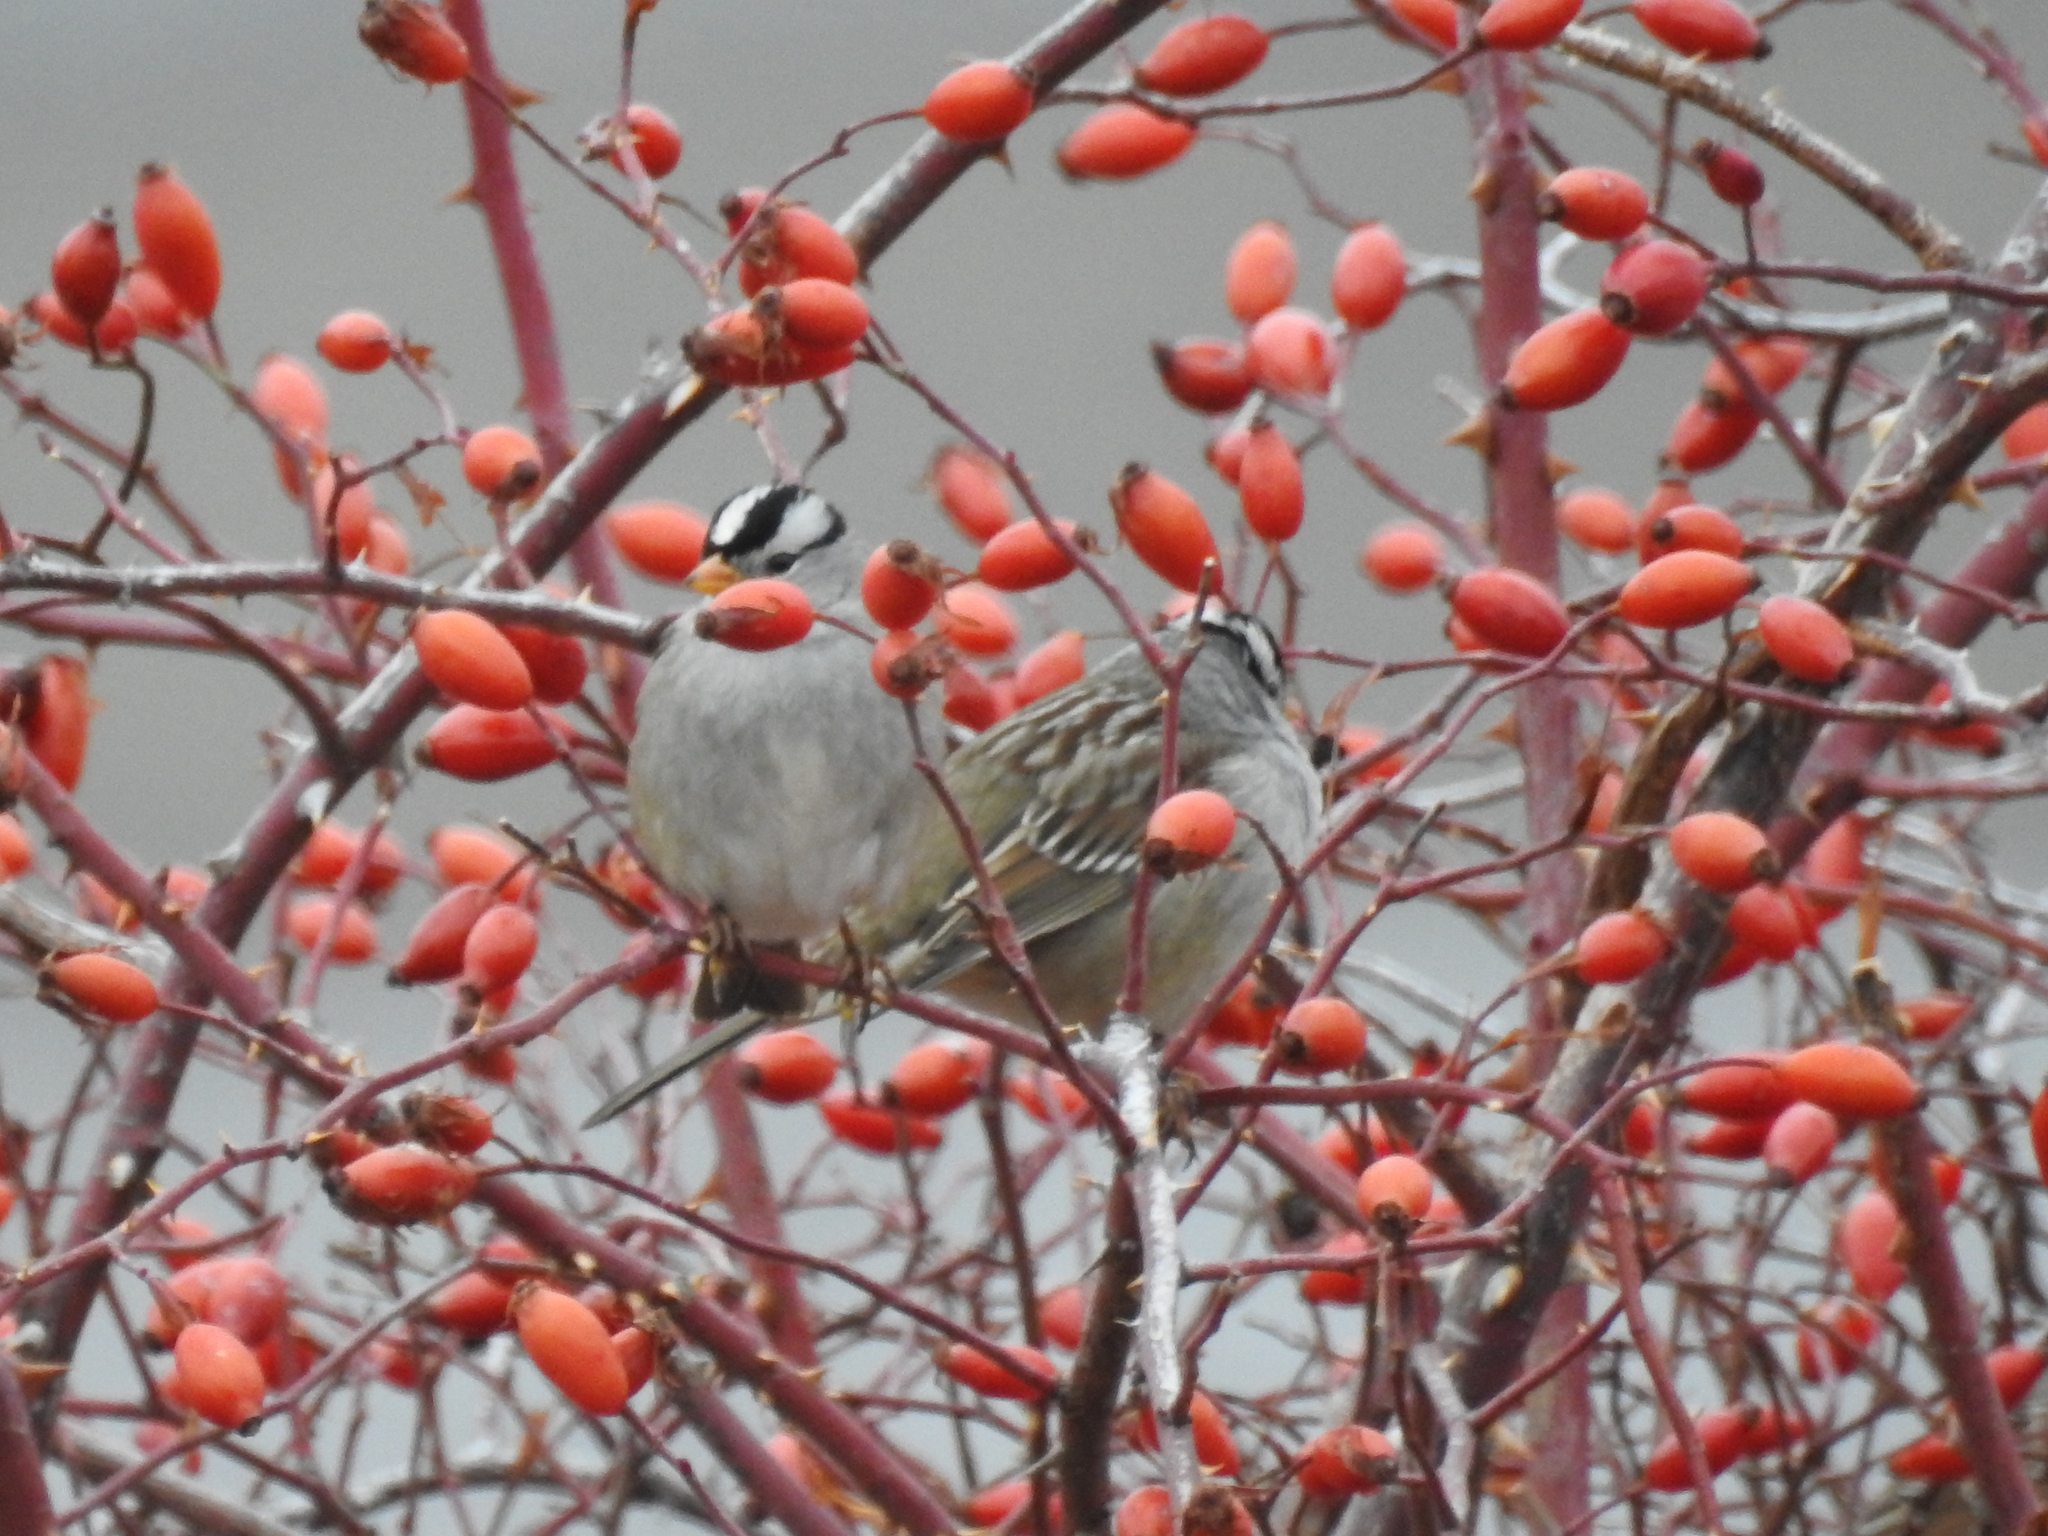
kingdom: Animalia
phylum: Chordata
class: Aves
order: Passeriformes
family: Passerellidae
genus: Zonotrichia
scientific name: Zonotrichia leucophrys
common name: White-crowned sparrow
